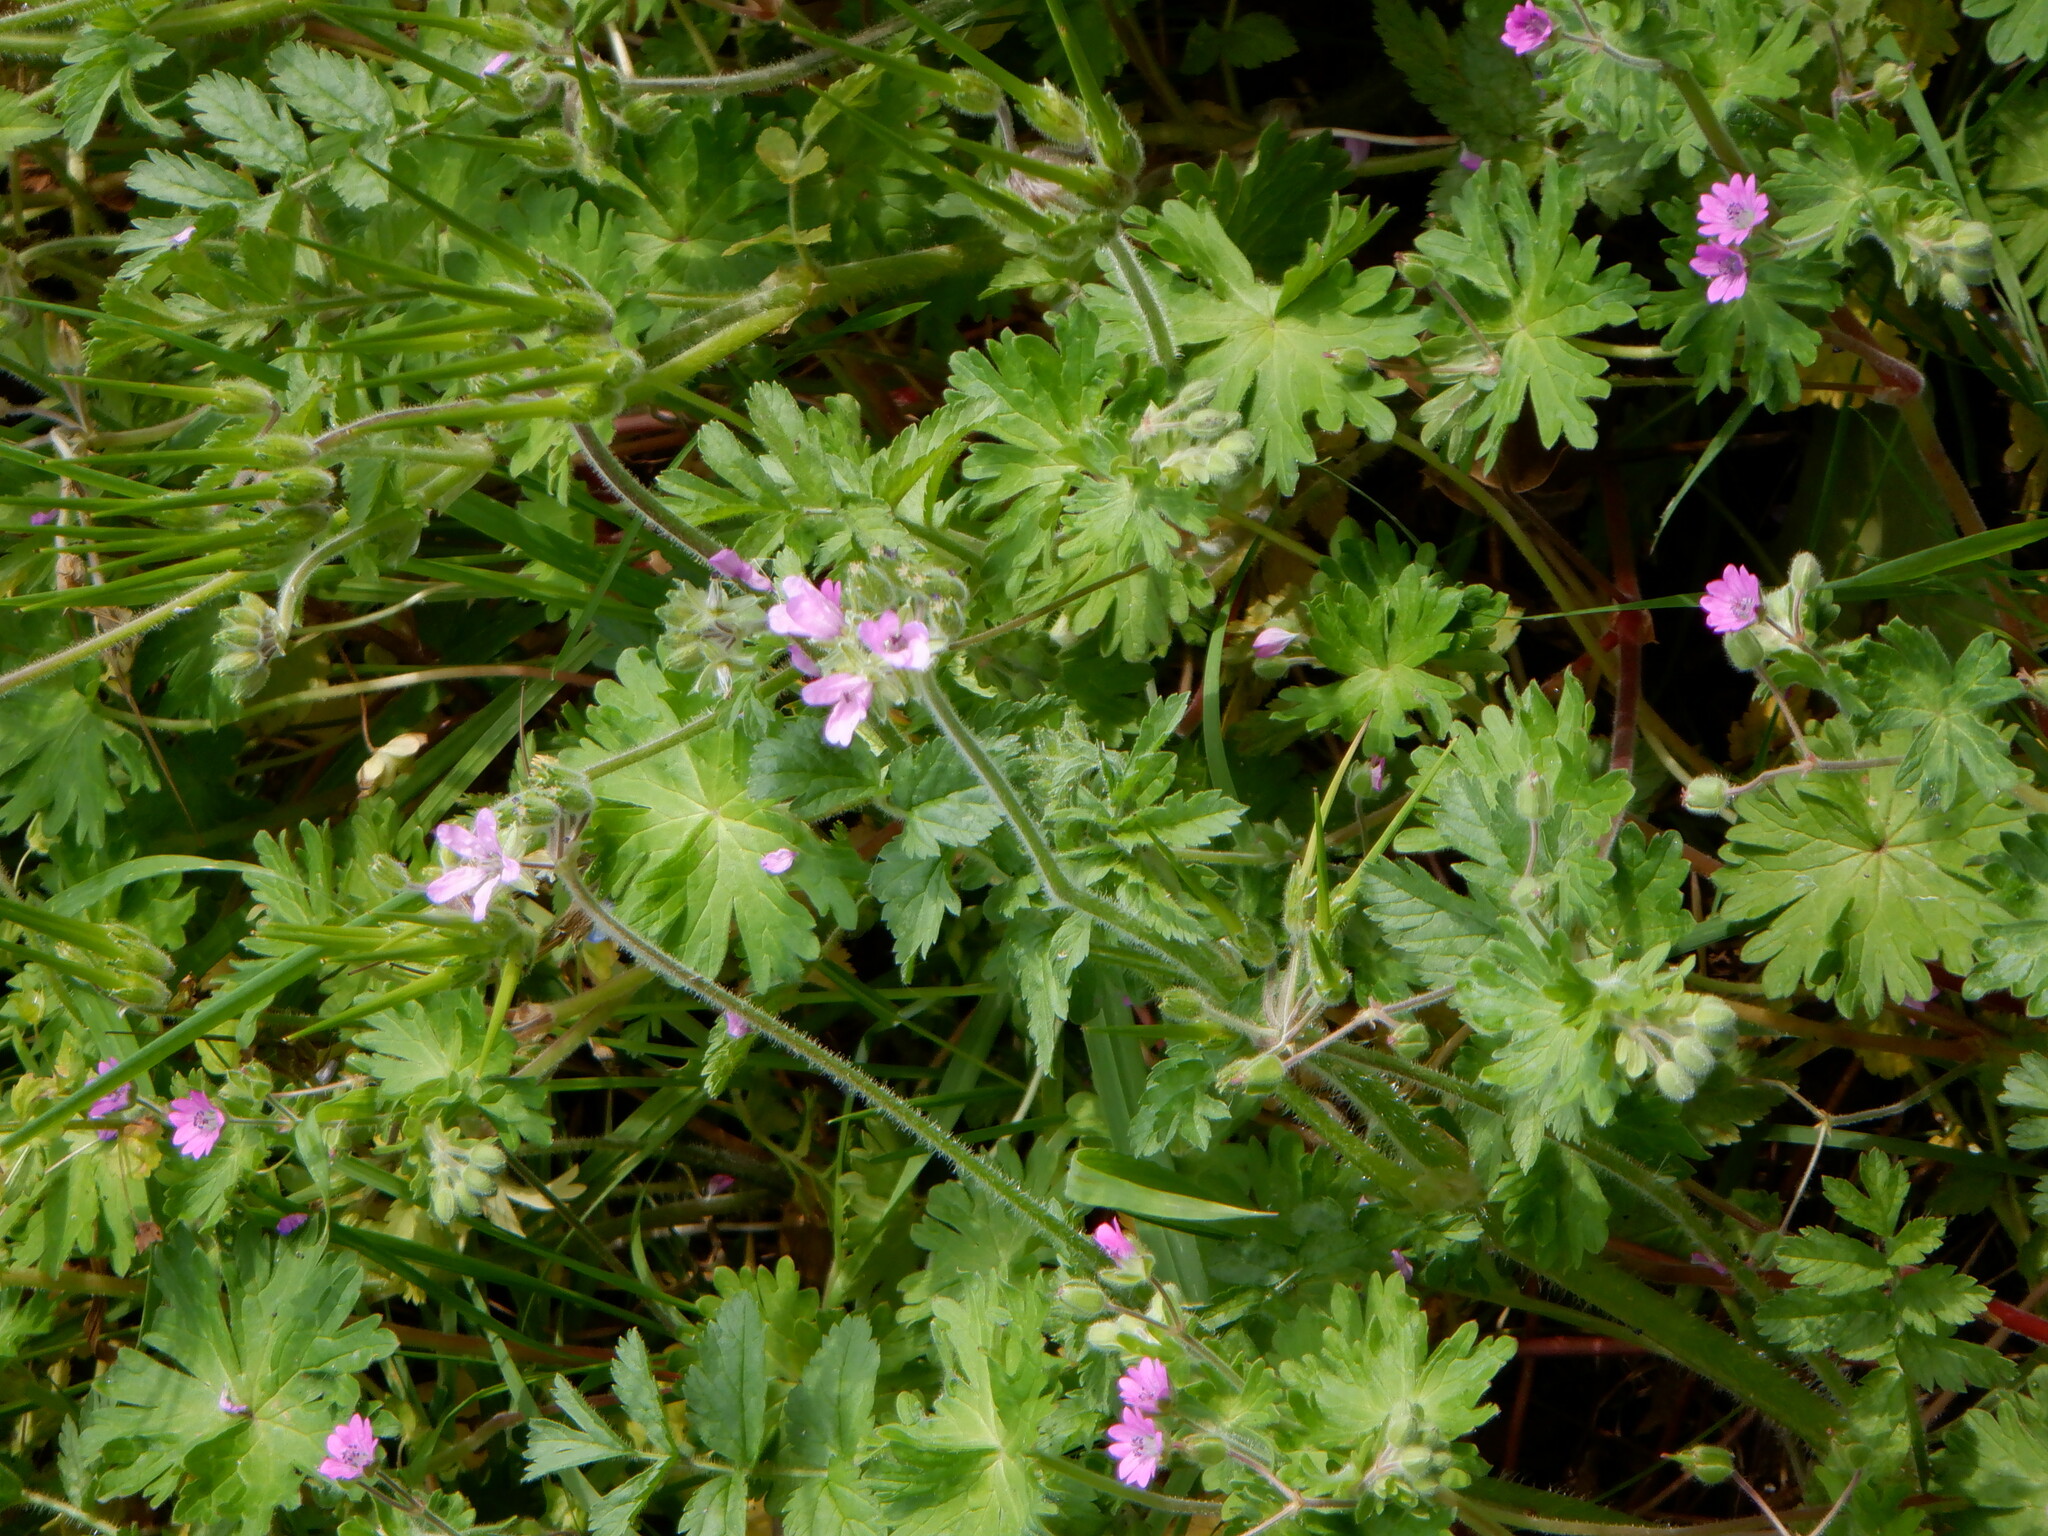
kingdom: Plantae
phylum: Tracheophyta
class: Magnoliopsida
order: Geraniales
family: Geraniaceae
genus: Erodium
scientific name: Erodium moschatum
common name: Musk stork's-bill
